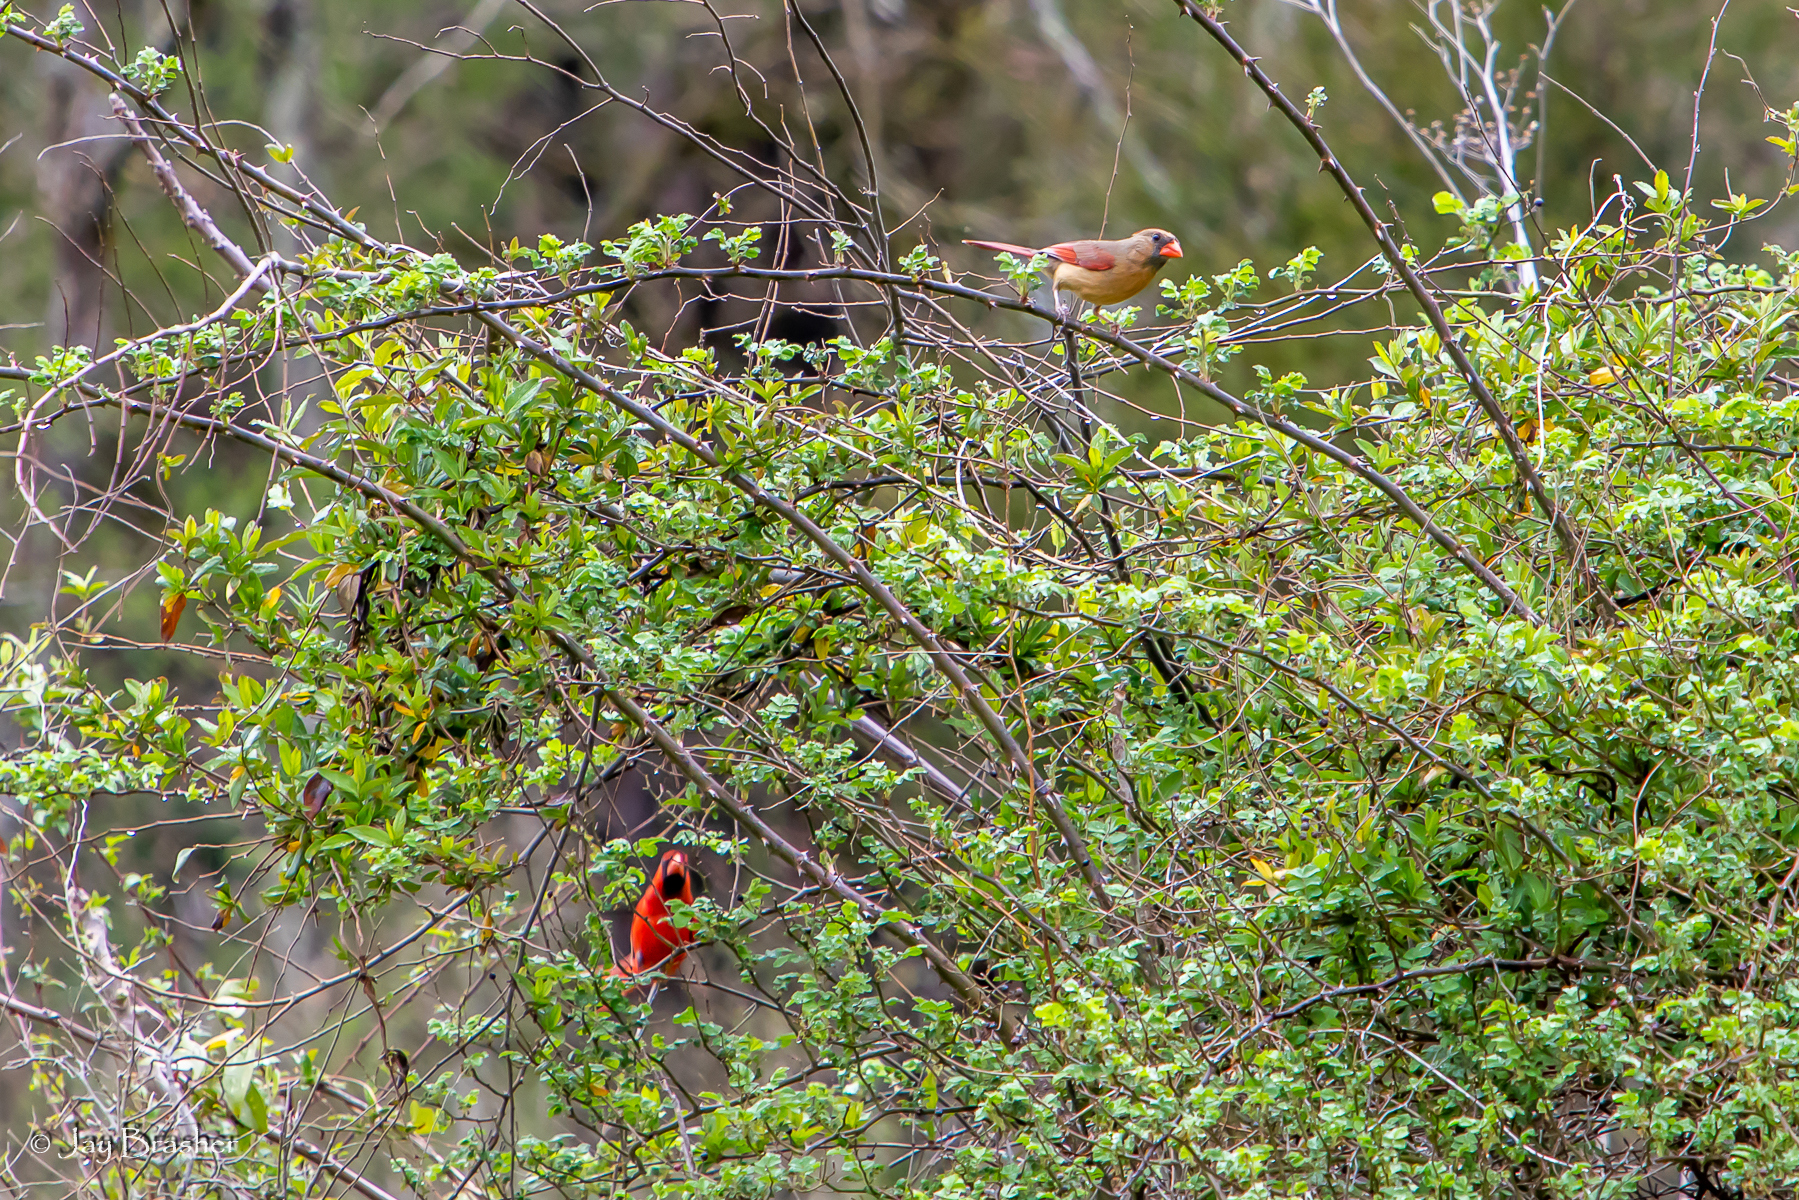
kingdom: Animalia
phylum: Chordata
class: Aves
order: Passeriformes
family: Cardinalidae
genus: Cardinalis
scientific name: Cardinalis cardinalis
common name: Northern cardinal
